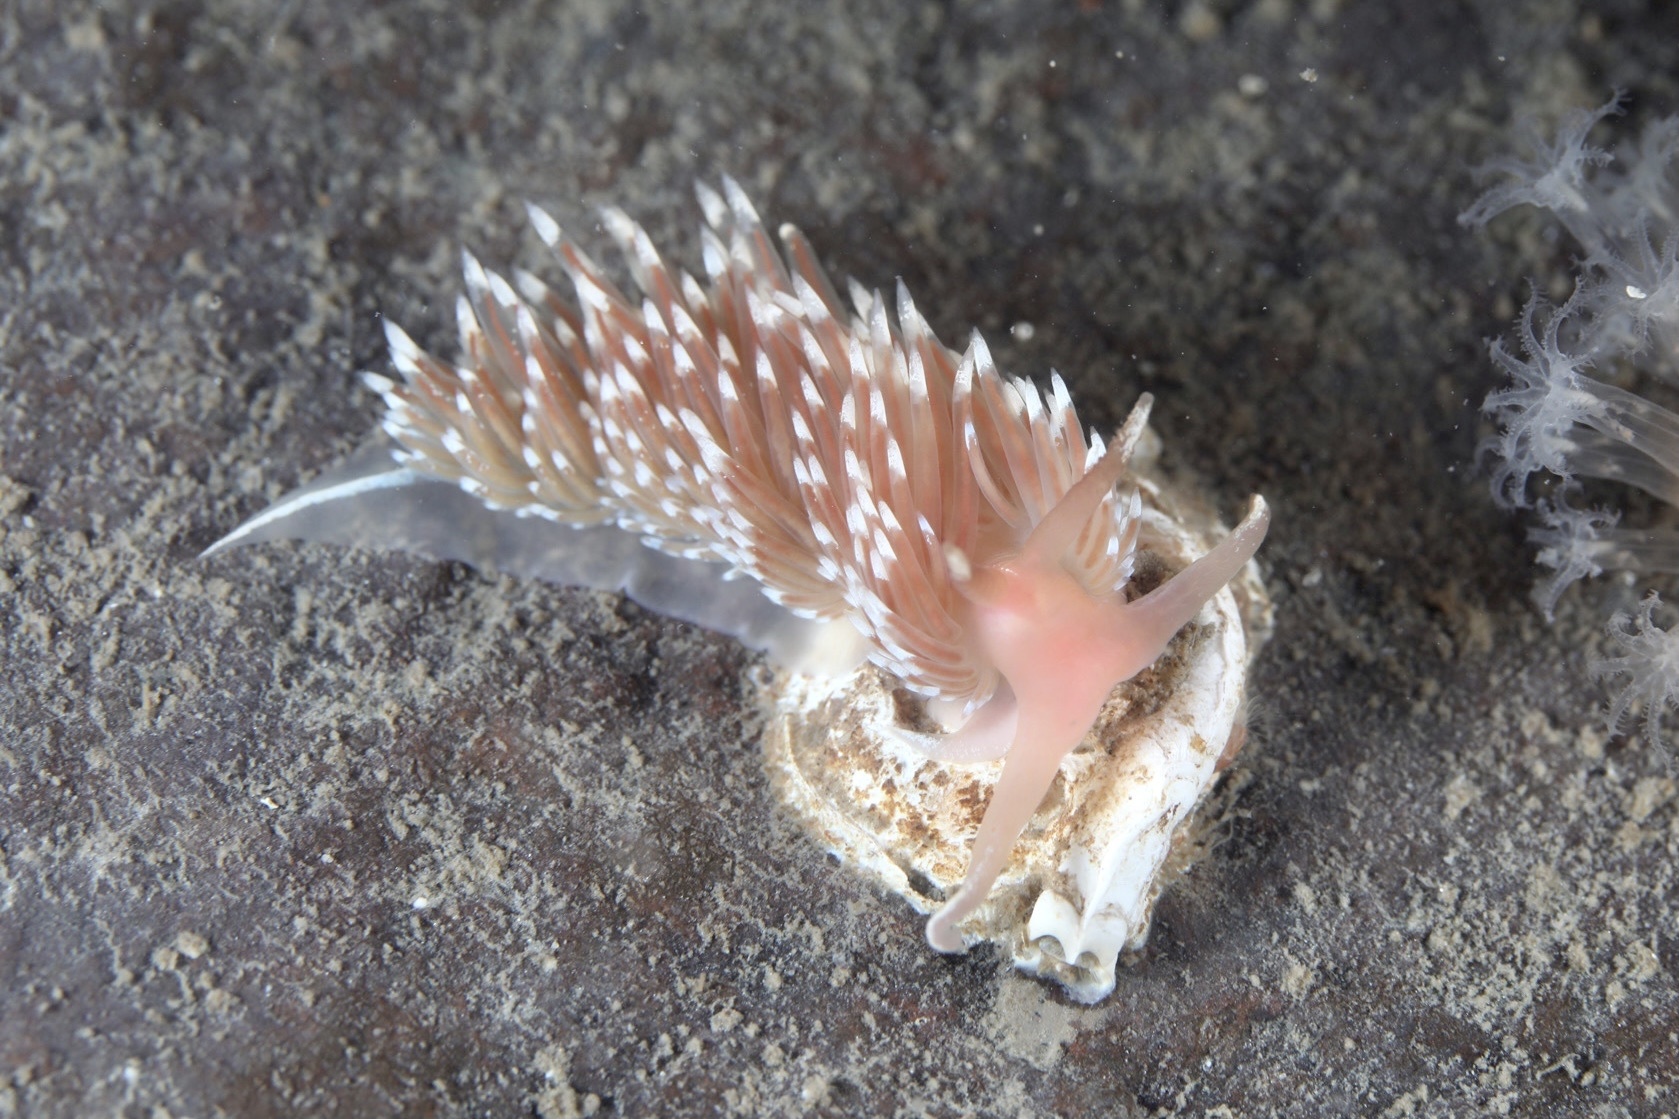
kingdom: Animalia
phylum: Mollusca
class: Gastropoda
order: Nudibranchia
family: Facelinidae
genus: Facelina
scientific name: Facelina bostoniensis
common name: Boston facelina
